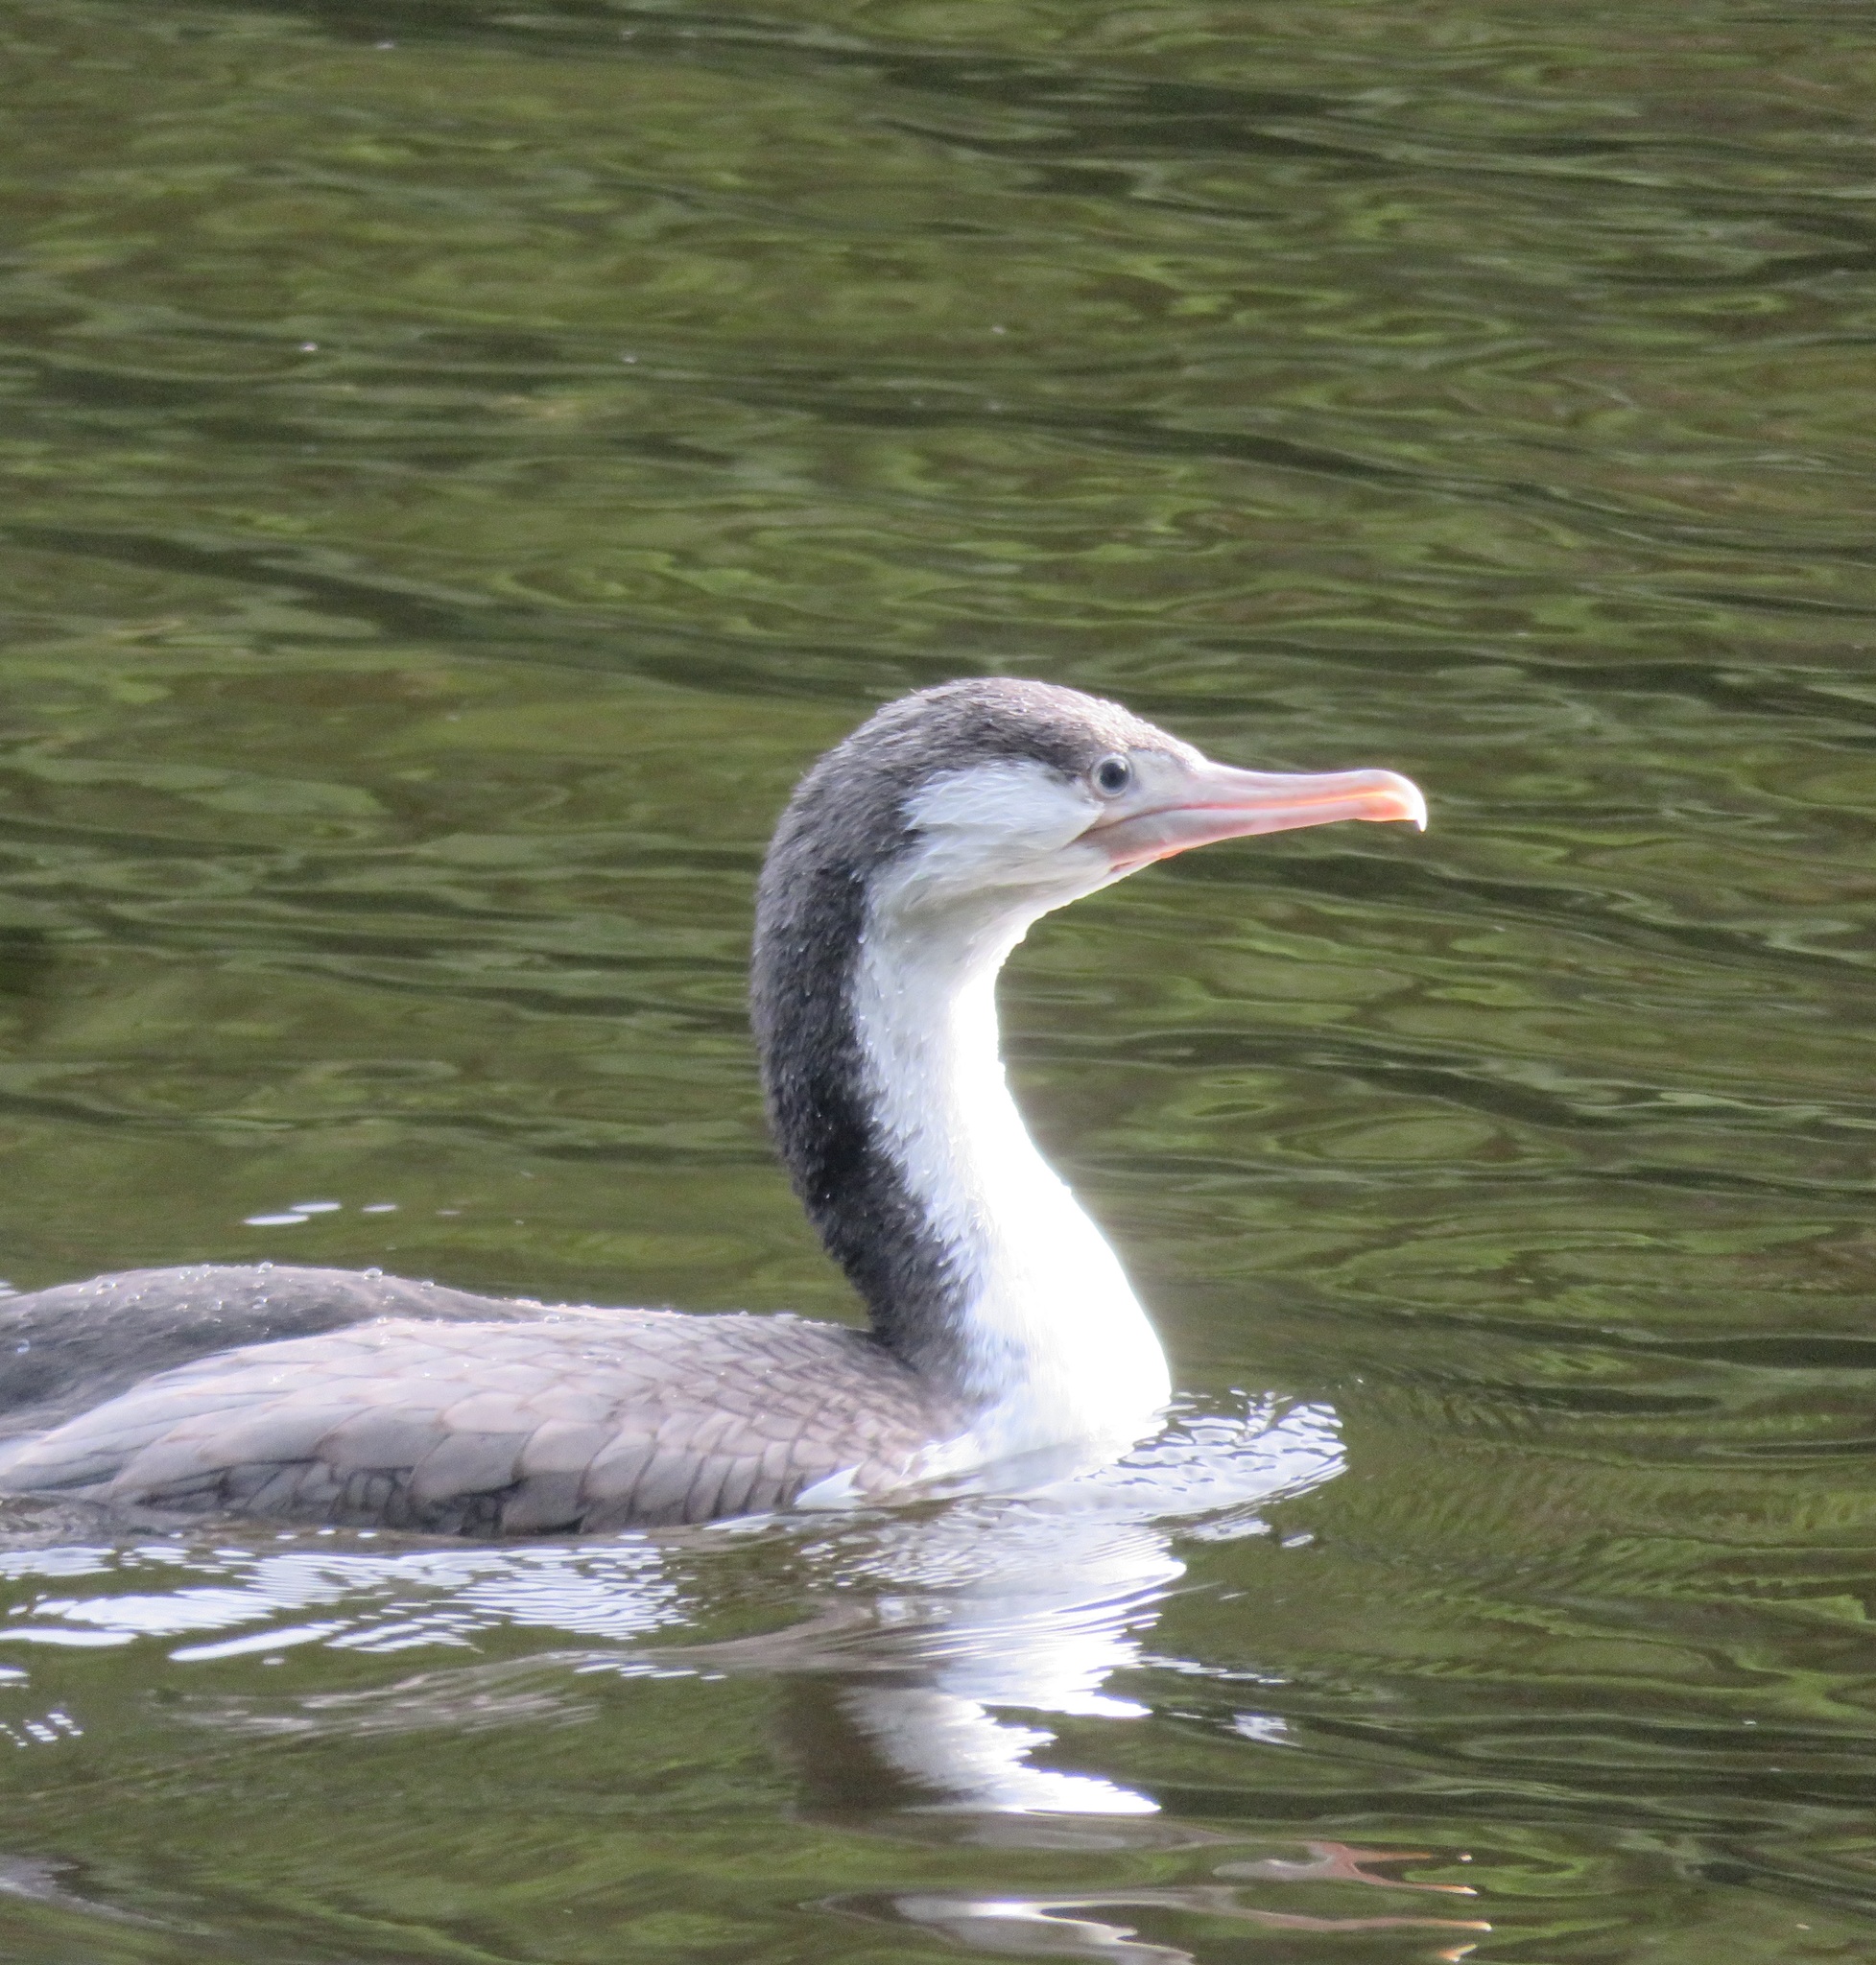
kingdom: Animalia
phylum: Chordata
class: Aves
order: Suliformes
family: Phalacrocoracidae
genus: Phalacrocorax
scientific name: Phalacrocorax varius
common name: Pied cormorant
